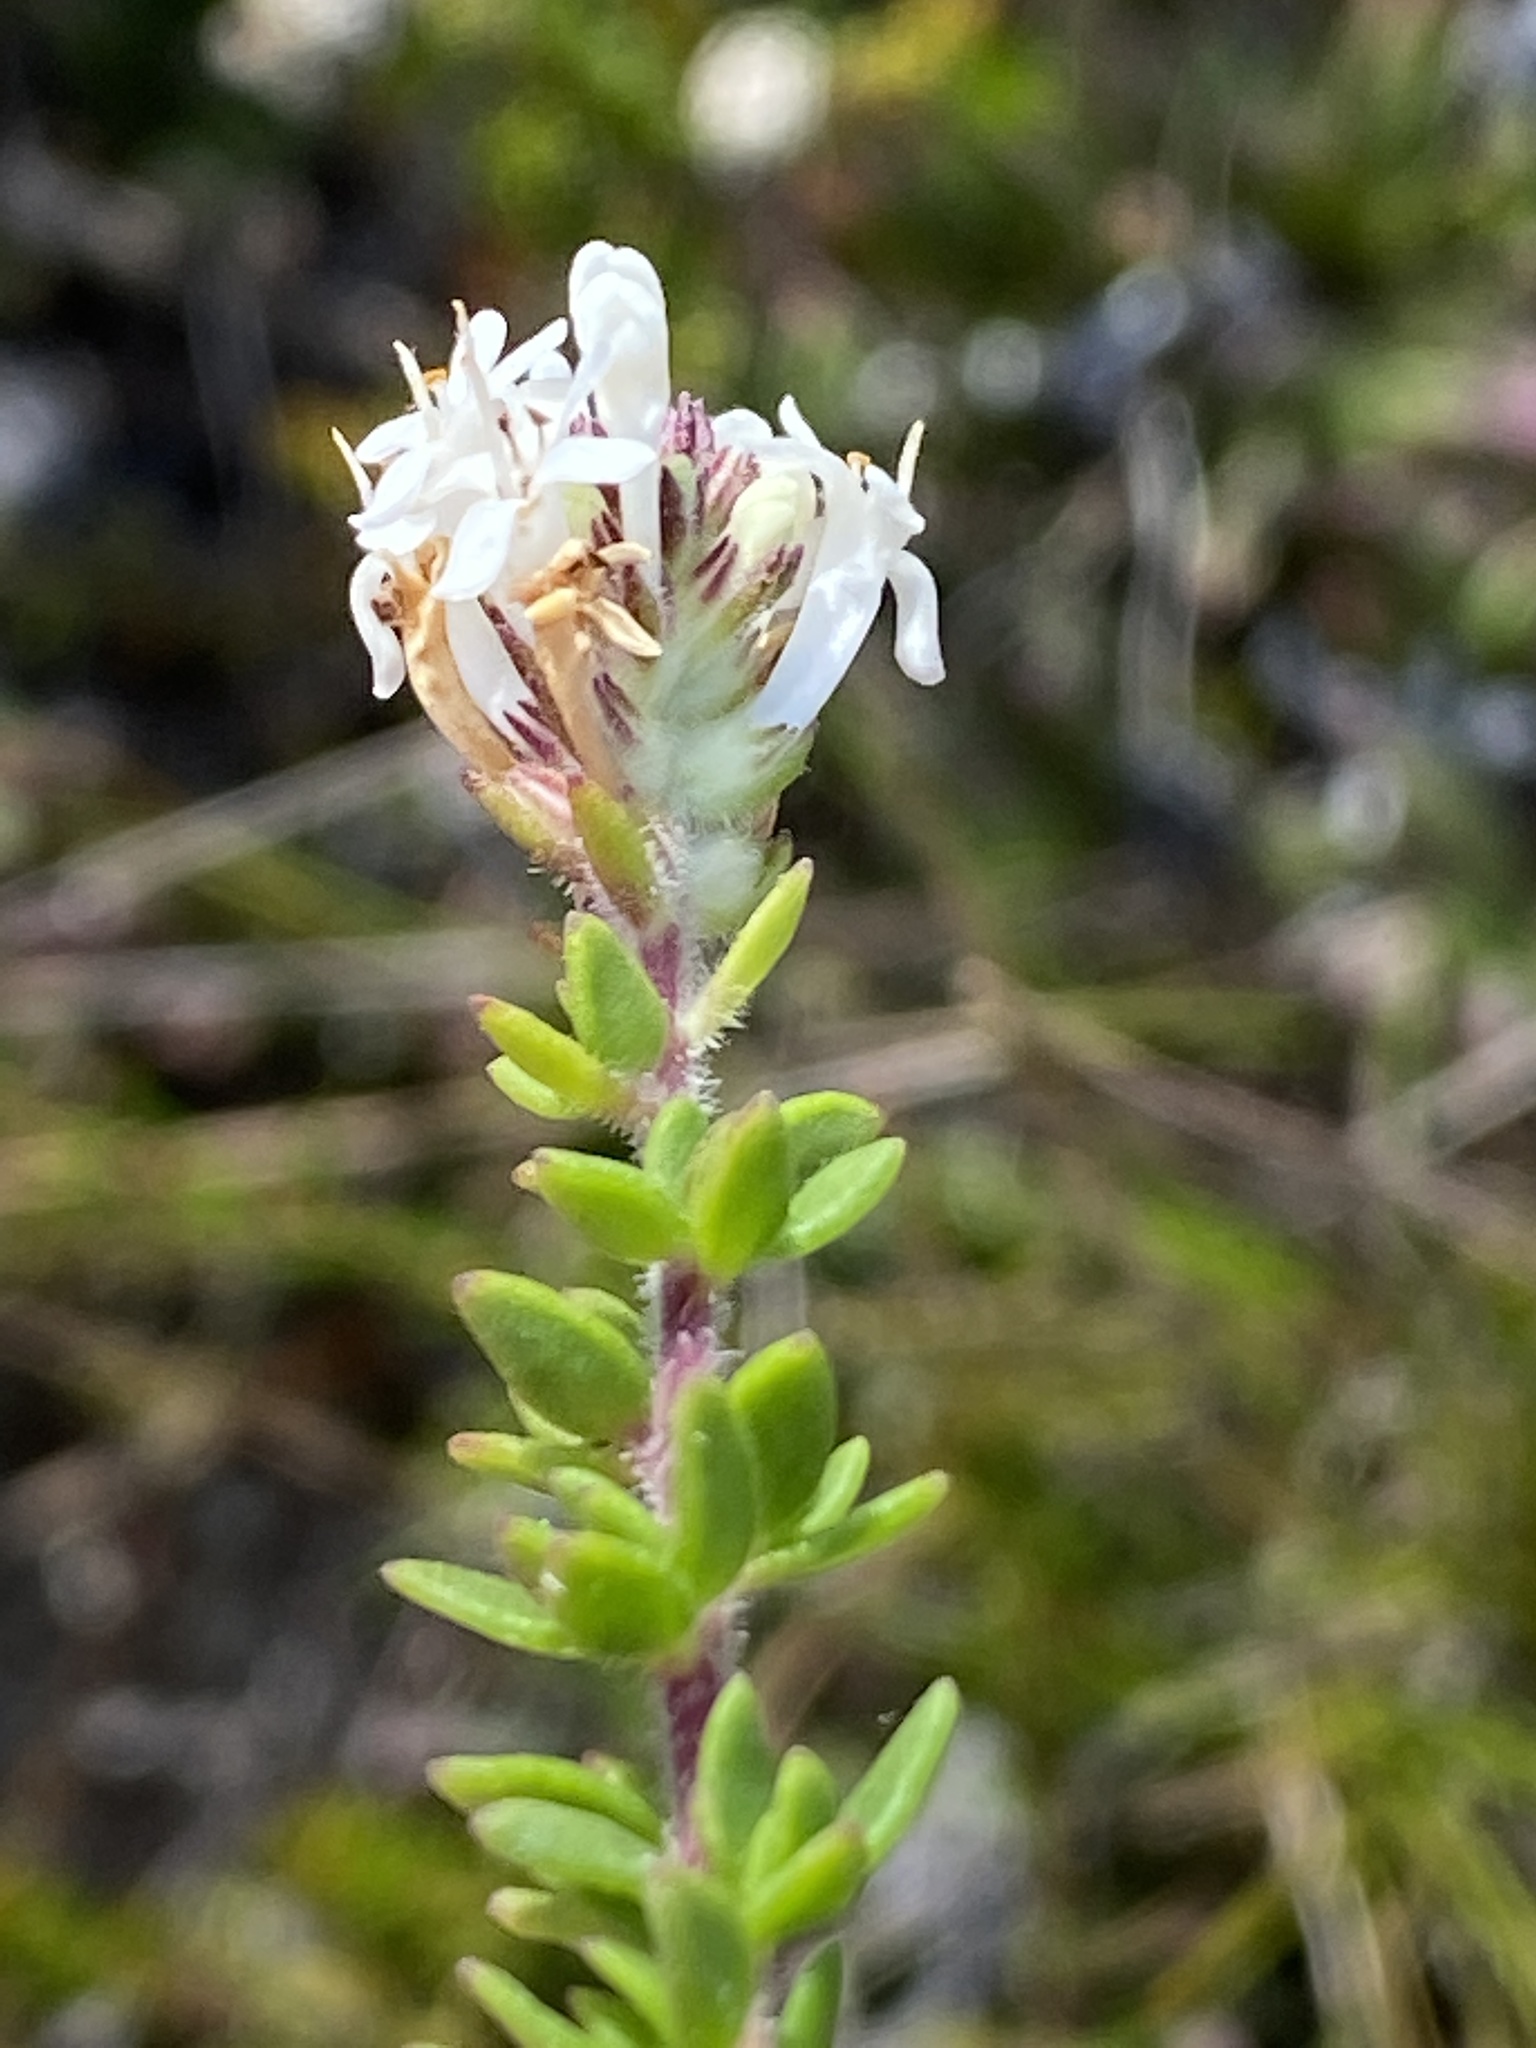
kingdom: Plantae
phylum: Tracheophyta
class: Magnoliopsida
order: Lamiales
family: Scrophulariaceae
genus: Selago
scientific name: Selago setulosa
